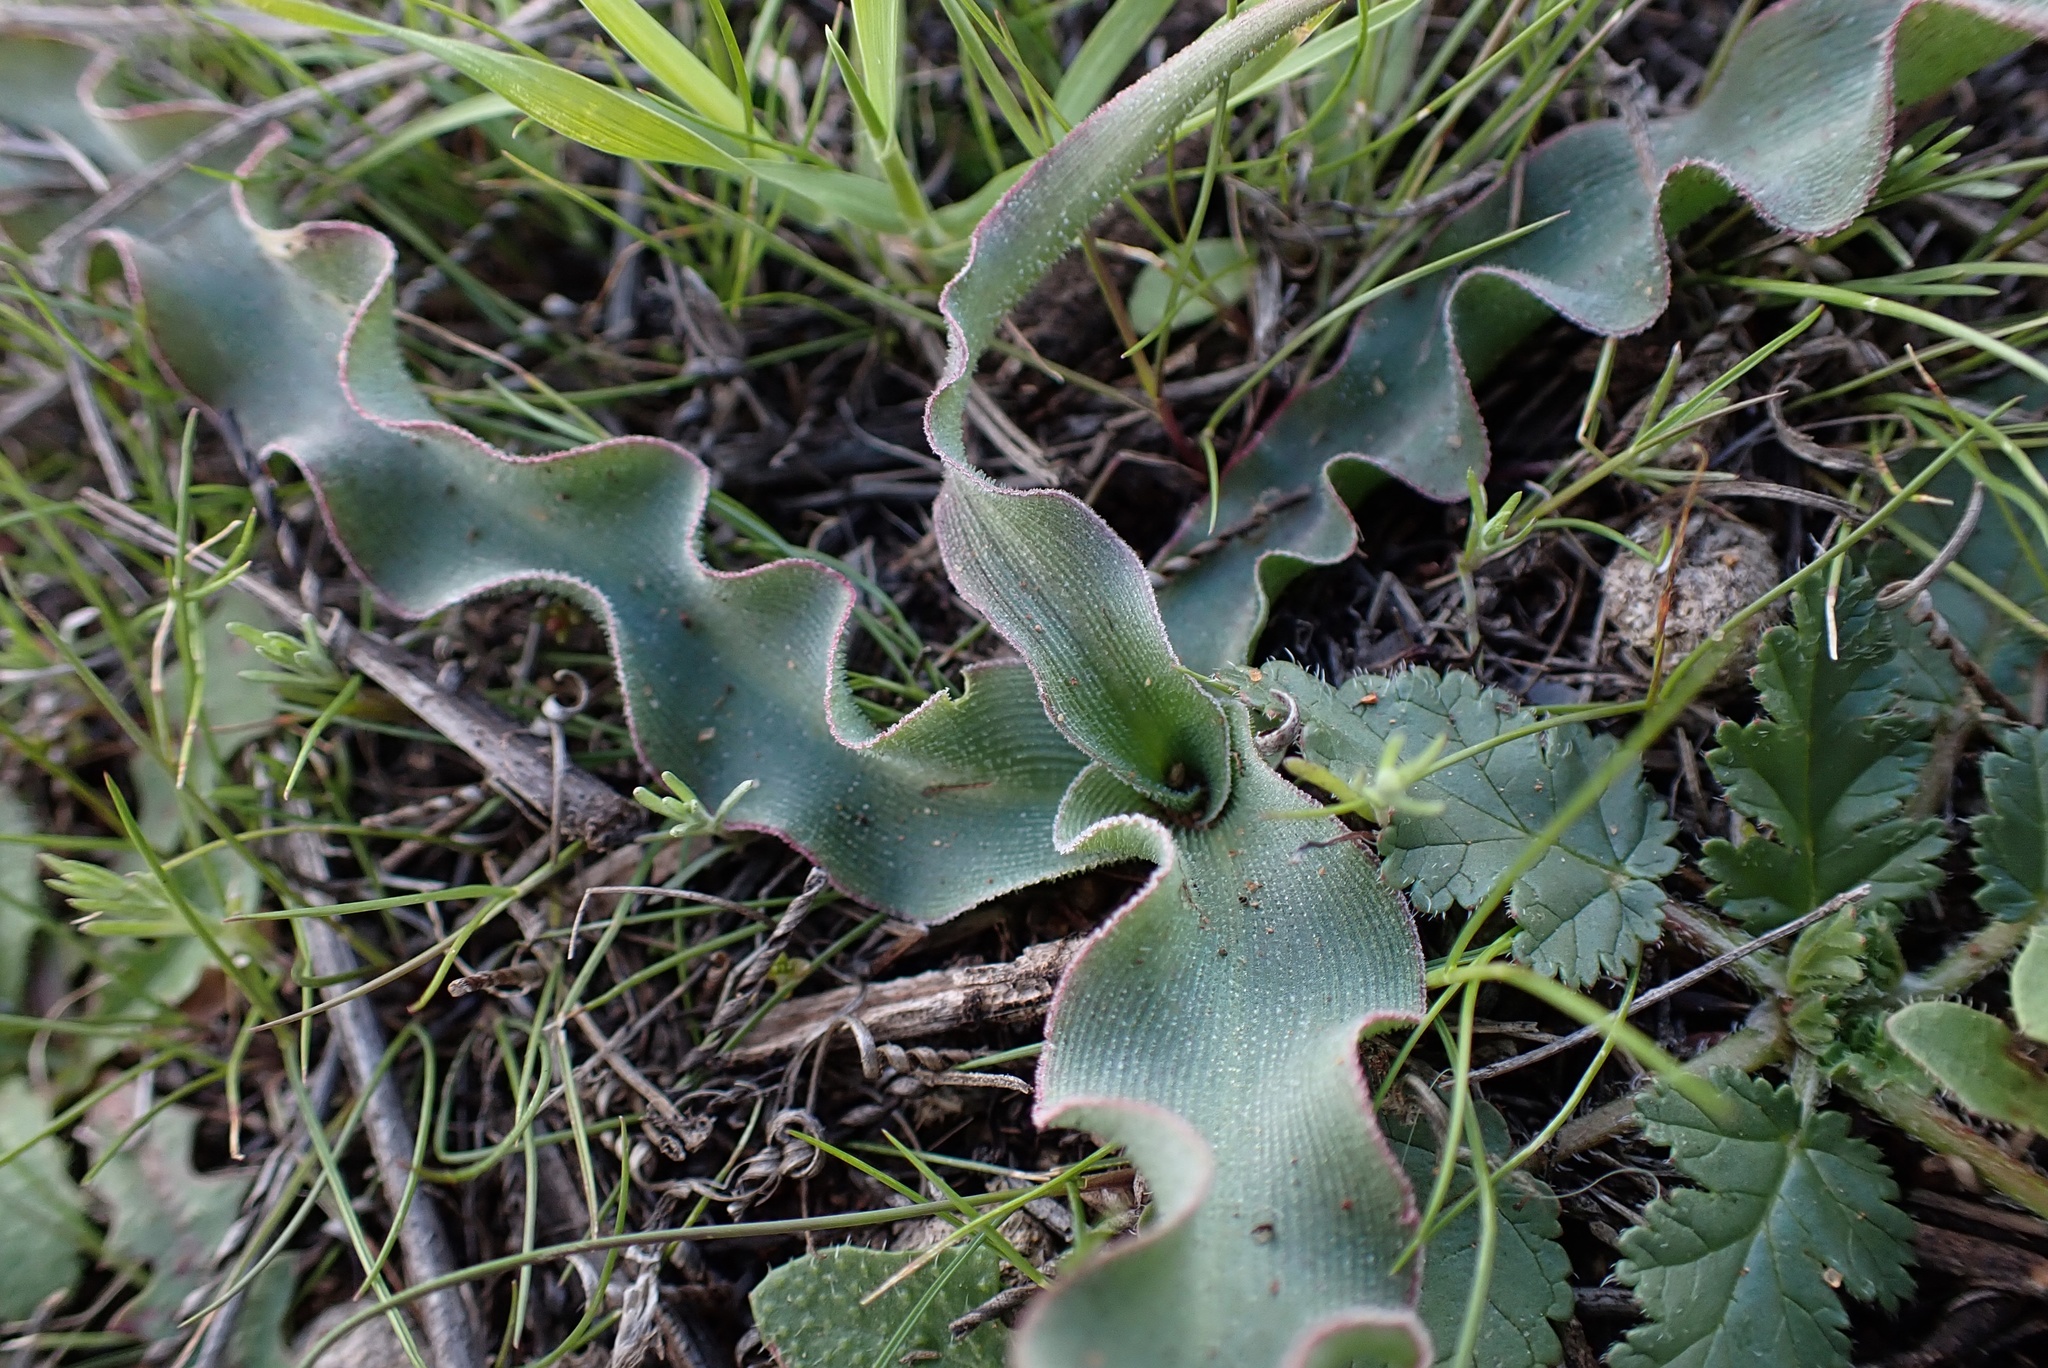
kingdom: Plantae
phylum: Tracheophyta
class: Liliopsida
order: Asparagales
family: Asparagaceae
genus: Hooveria
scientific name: Hooveria parviflora
